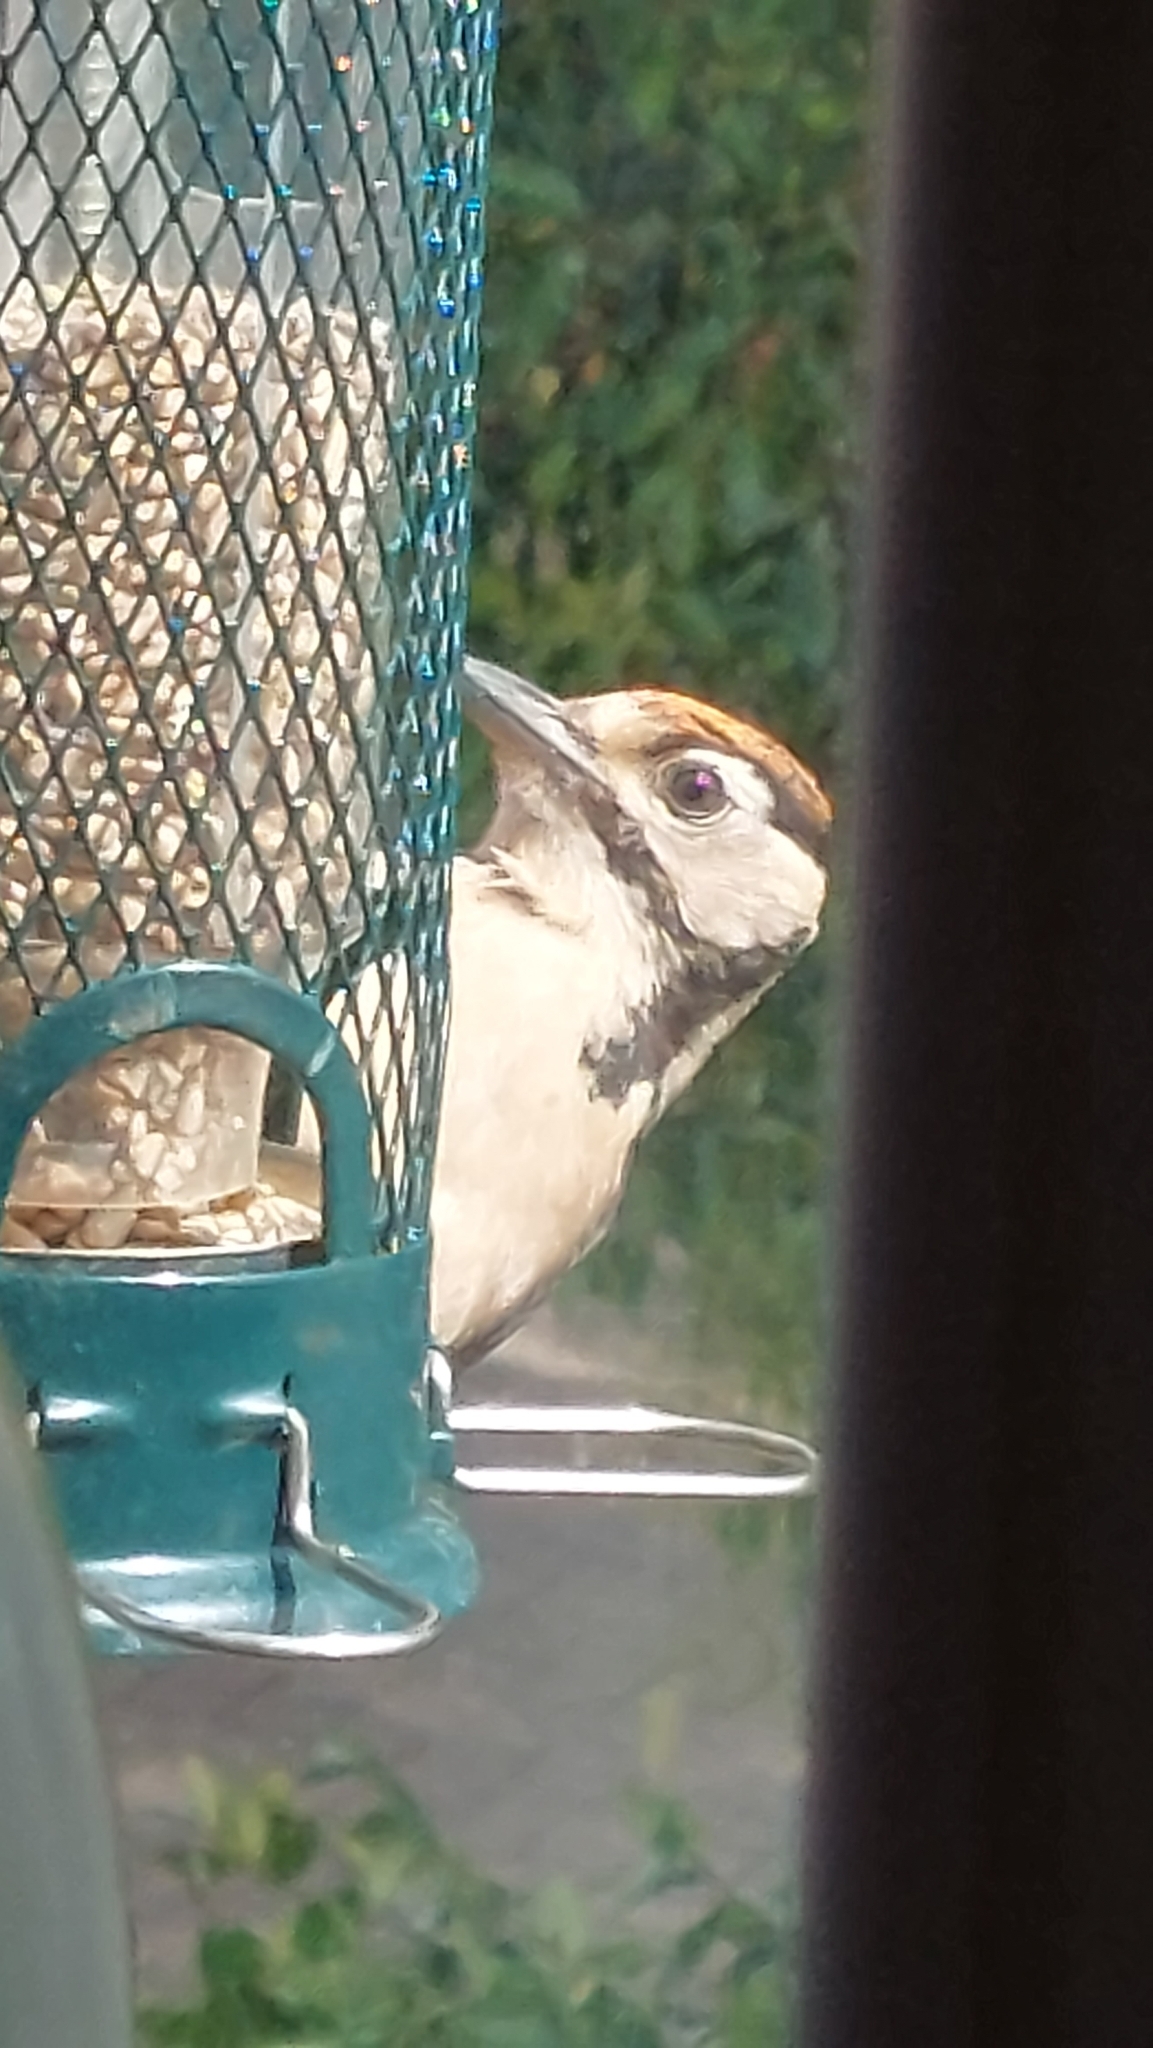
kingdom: Animalia
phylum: Chordata
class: Aves
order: Piciformes
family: Picidae
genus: Dendrocopos
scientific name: Dendrocopos major
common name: Great spotted woodpecker
